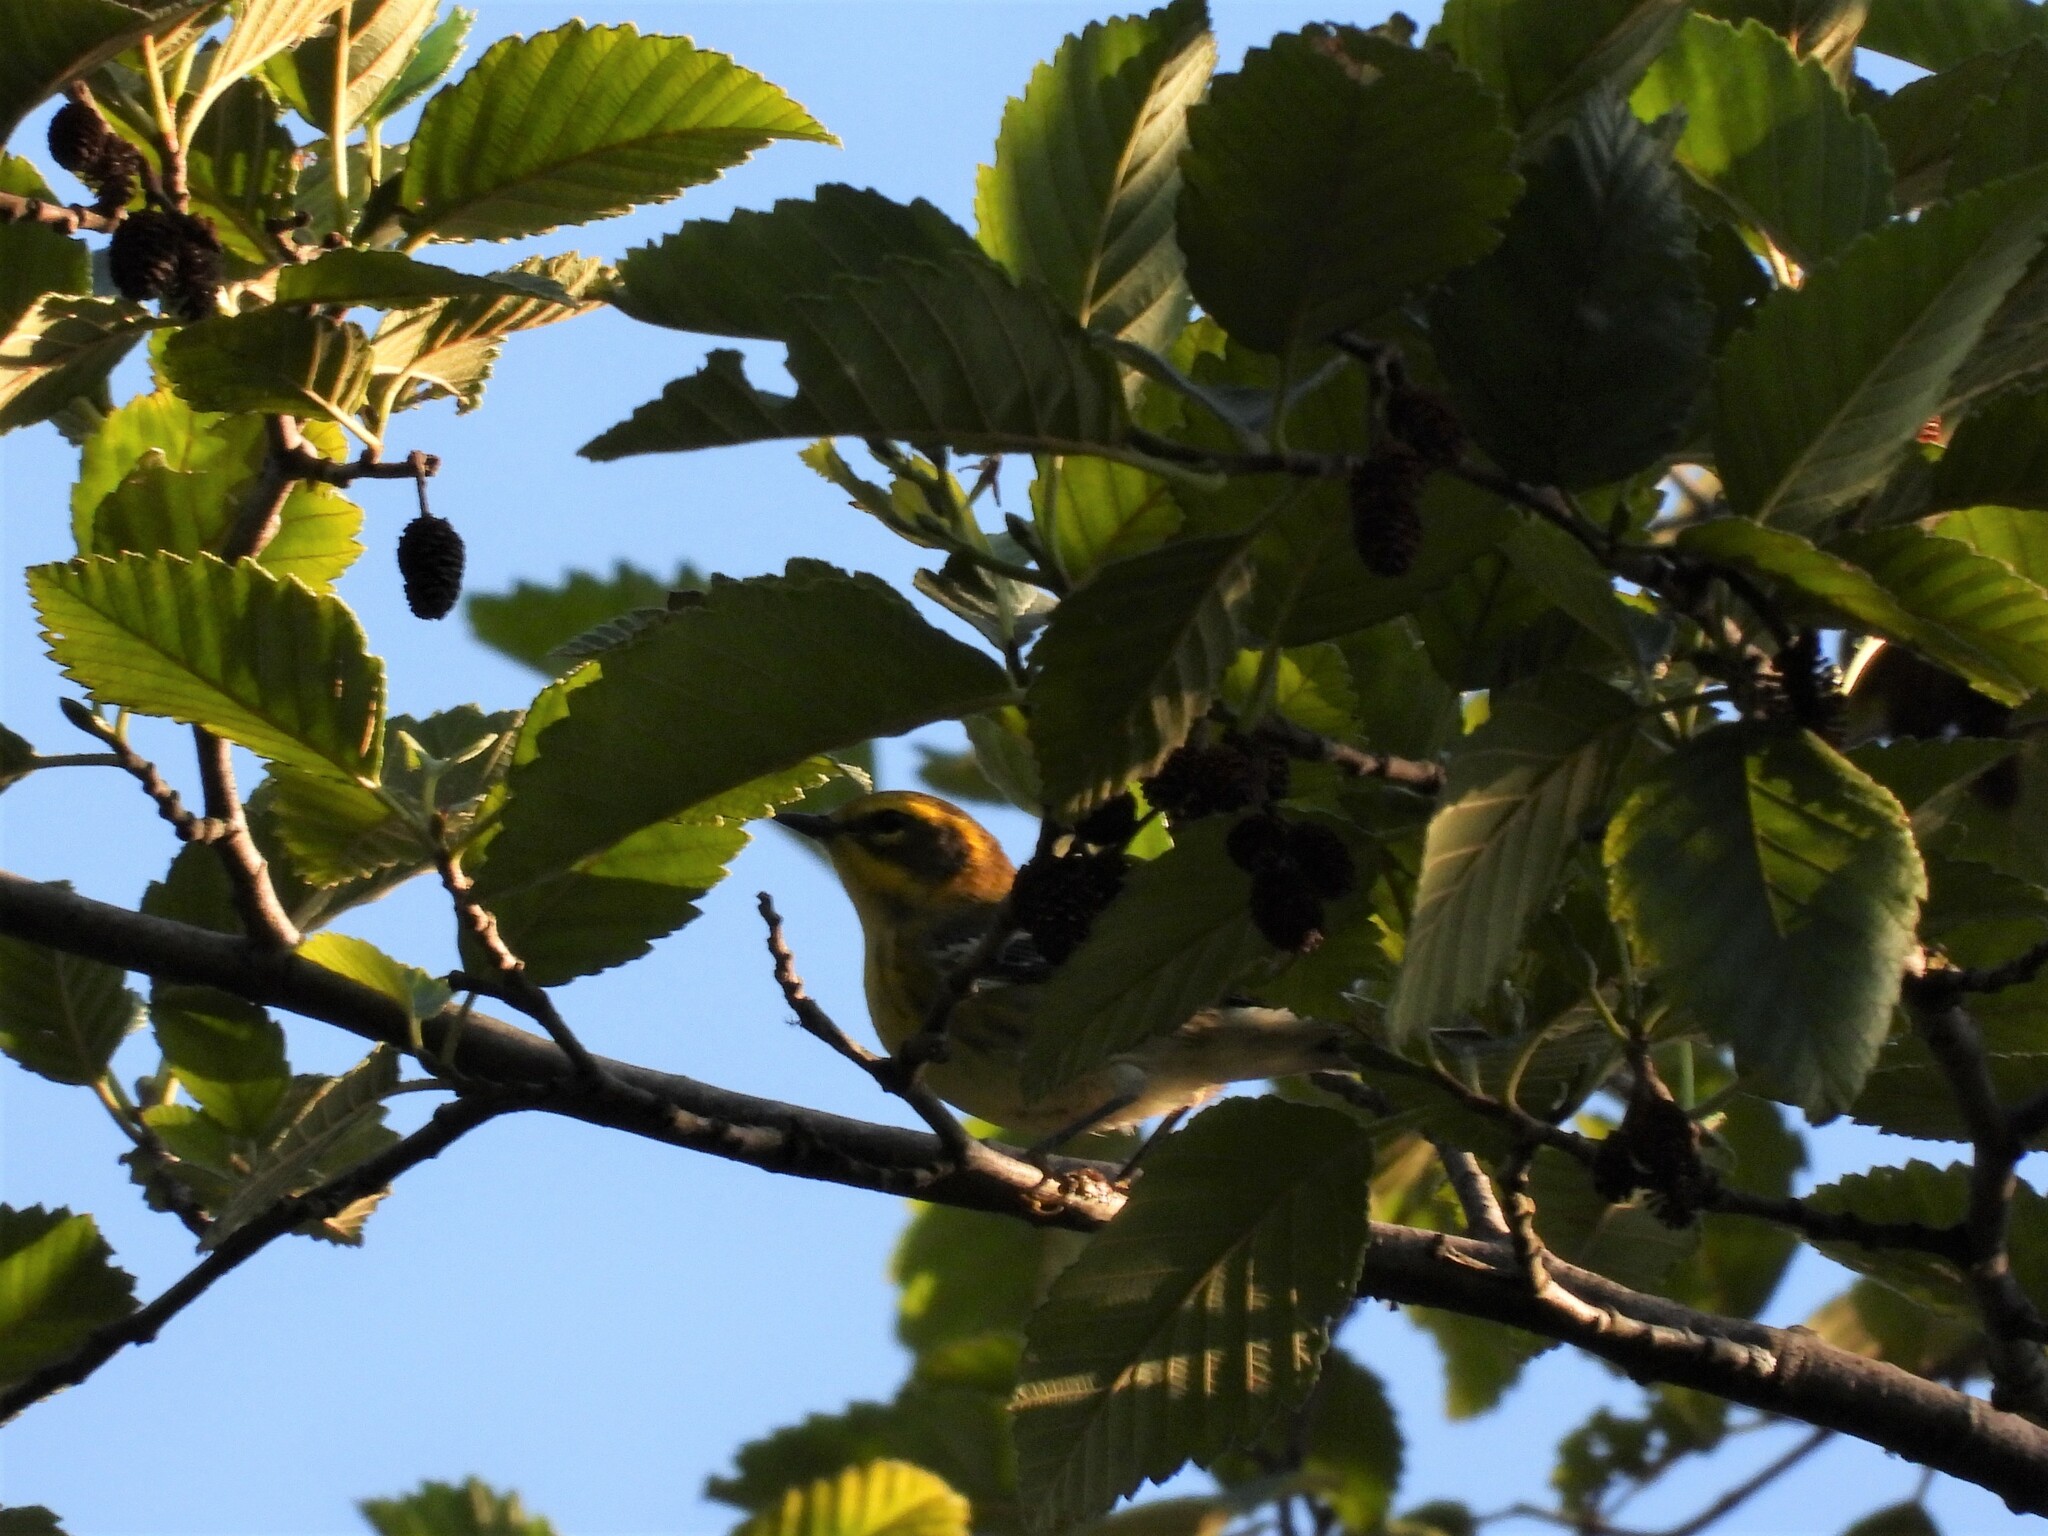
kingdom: Animalia
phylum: Chordata
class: Aves
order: Passeriformes
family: Parulidae
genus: Setophaga
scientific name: Setophaga townsendi
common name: Townsend's warbler
